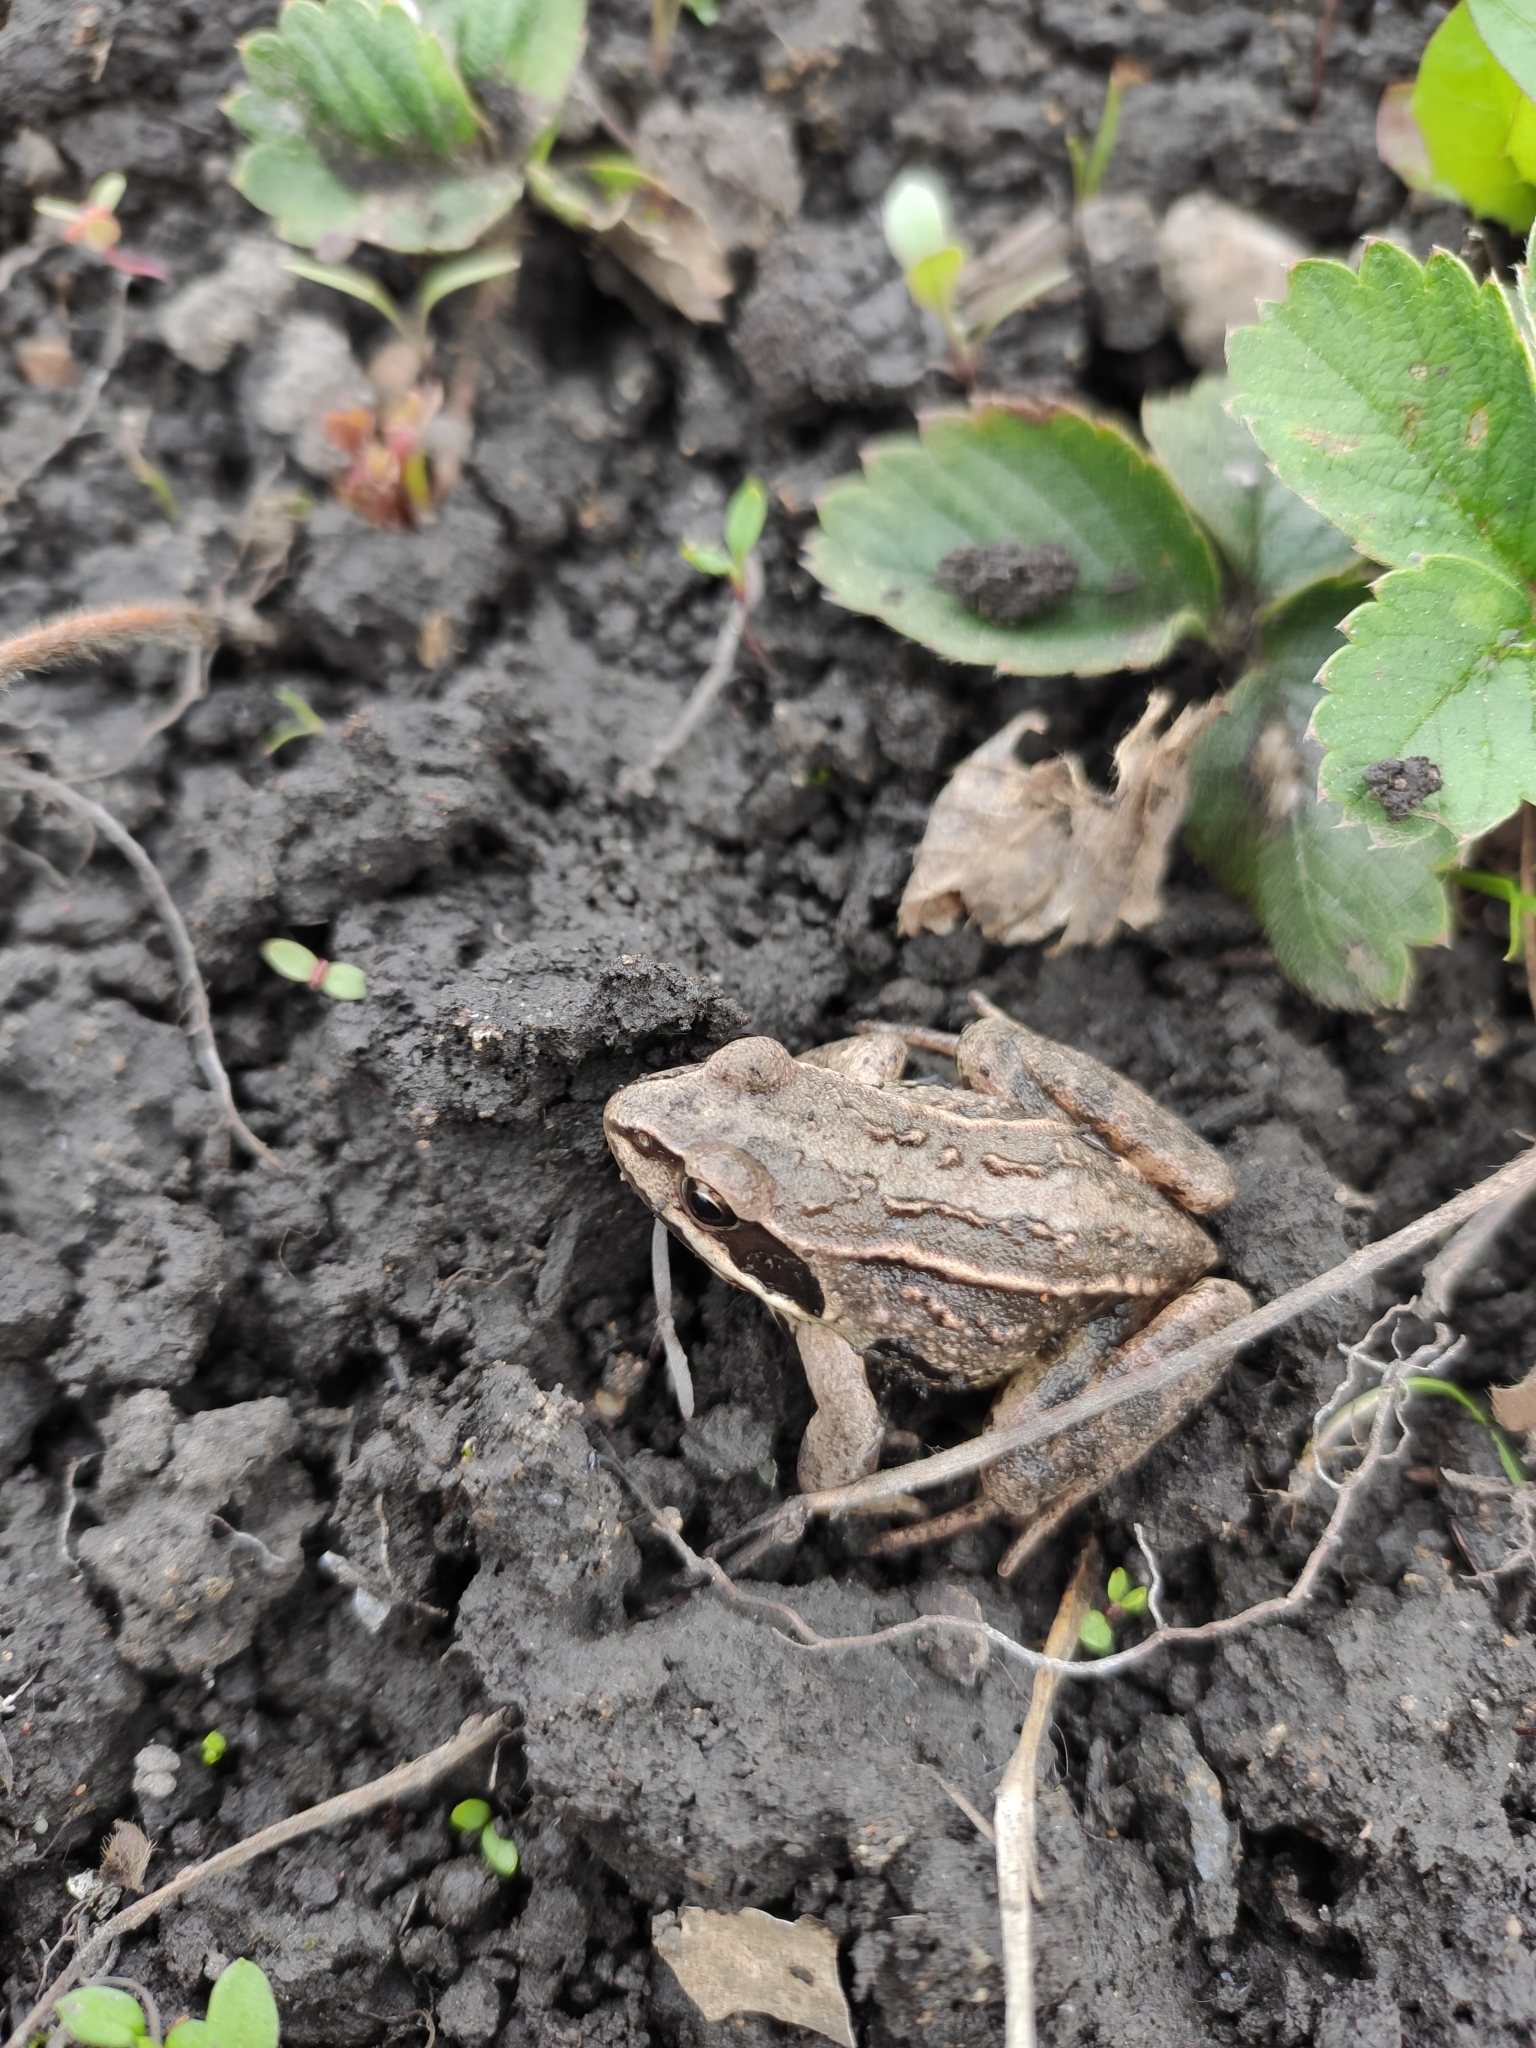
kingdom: Animalia
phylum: Chordata
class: Amphibia
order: Anura
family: Ranidae
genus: Rana
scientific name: Rana arvalis
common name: Moor frog
